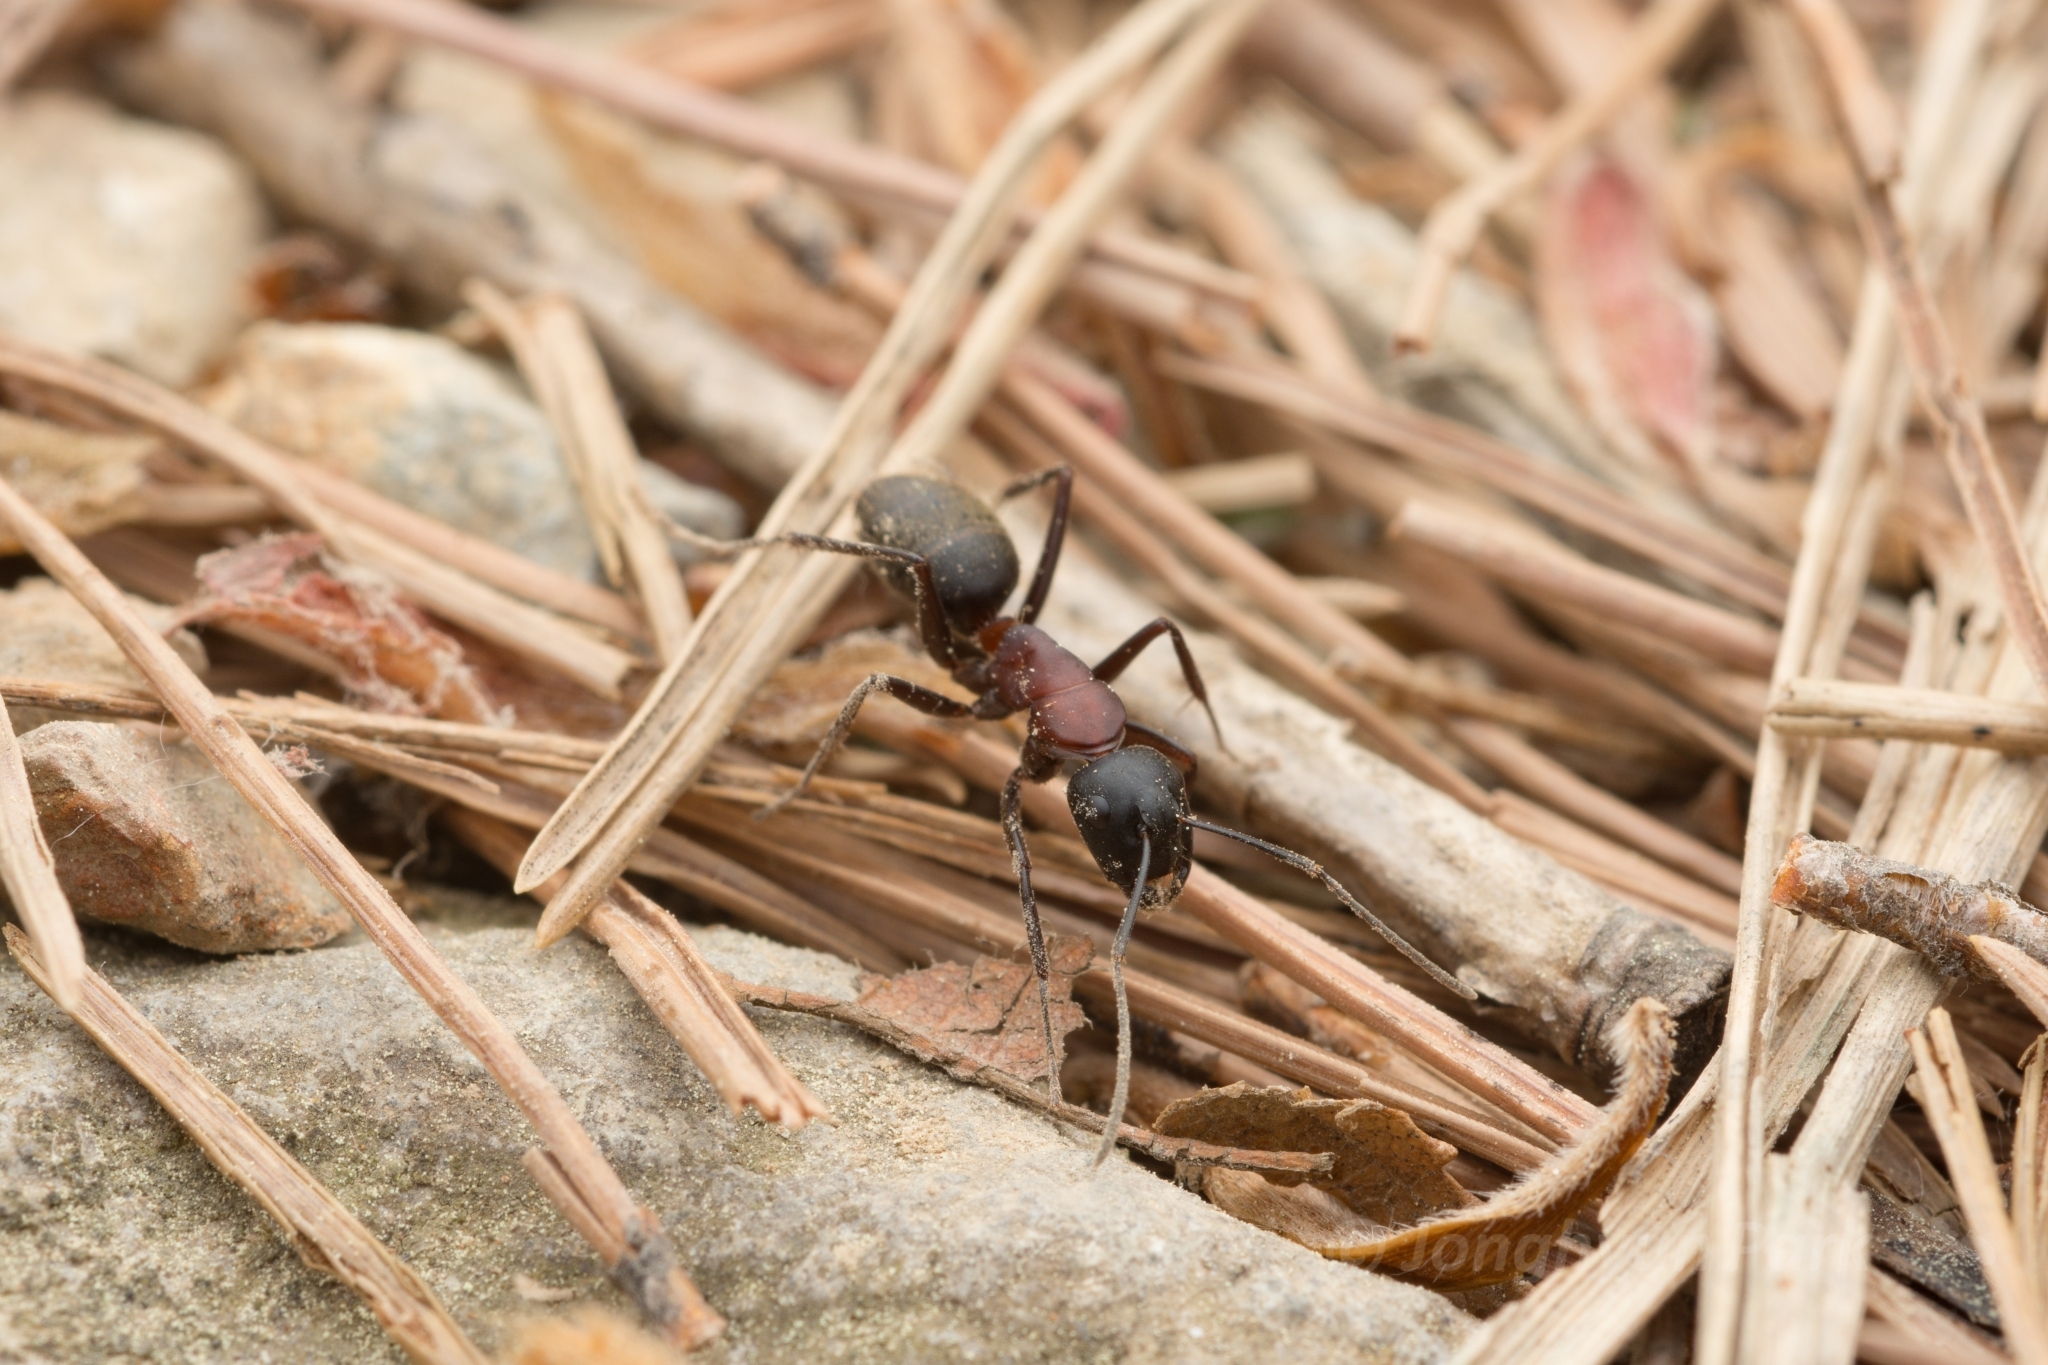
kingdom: Animalia
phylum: Arthropoda
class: Insecta
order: Hymenoptera
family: Formicidae
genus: Camponotus
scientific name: Camponotus atrox
